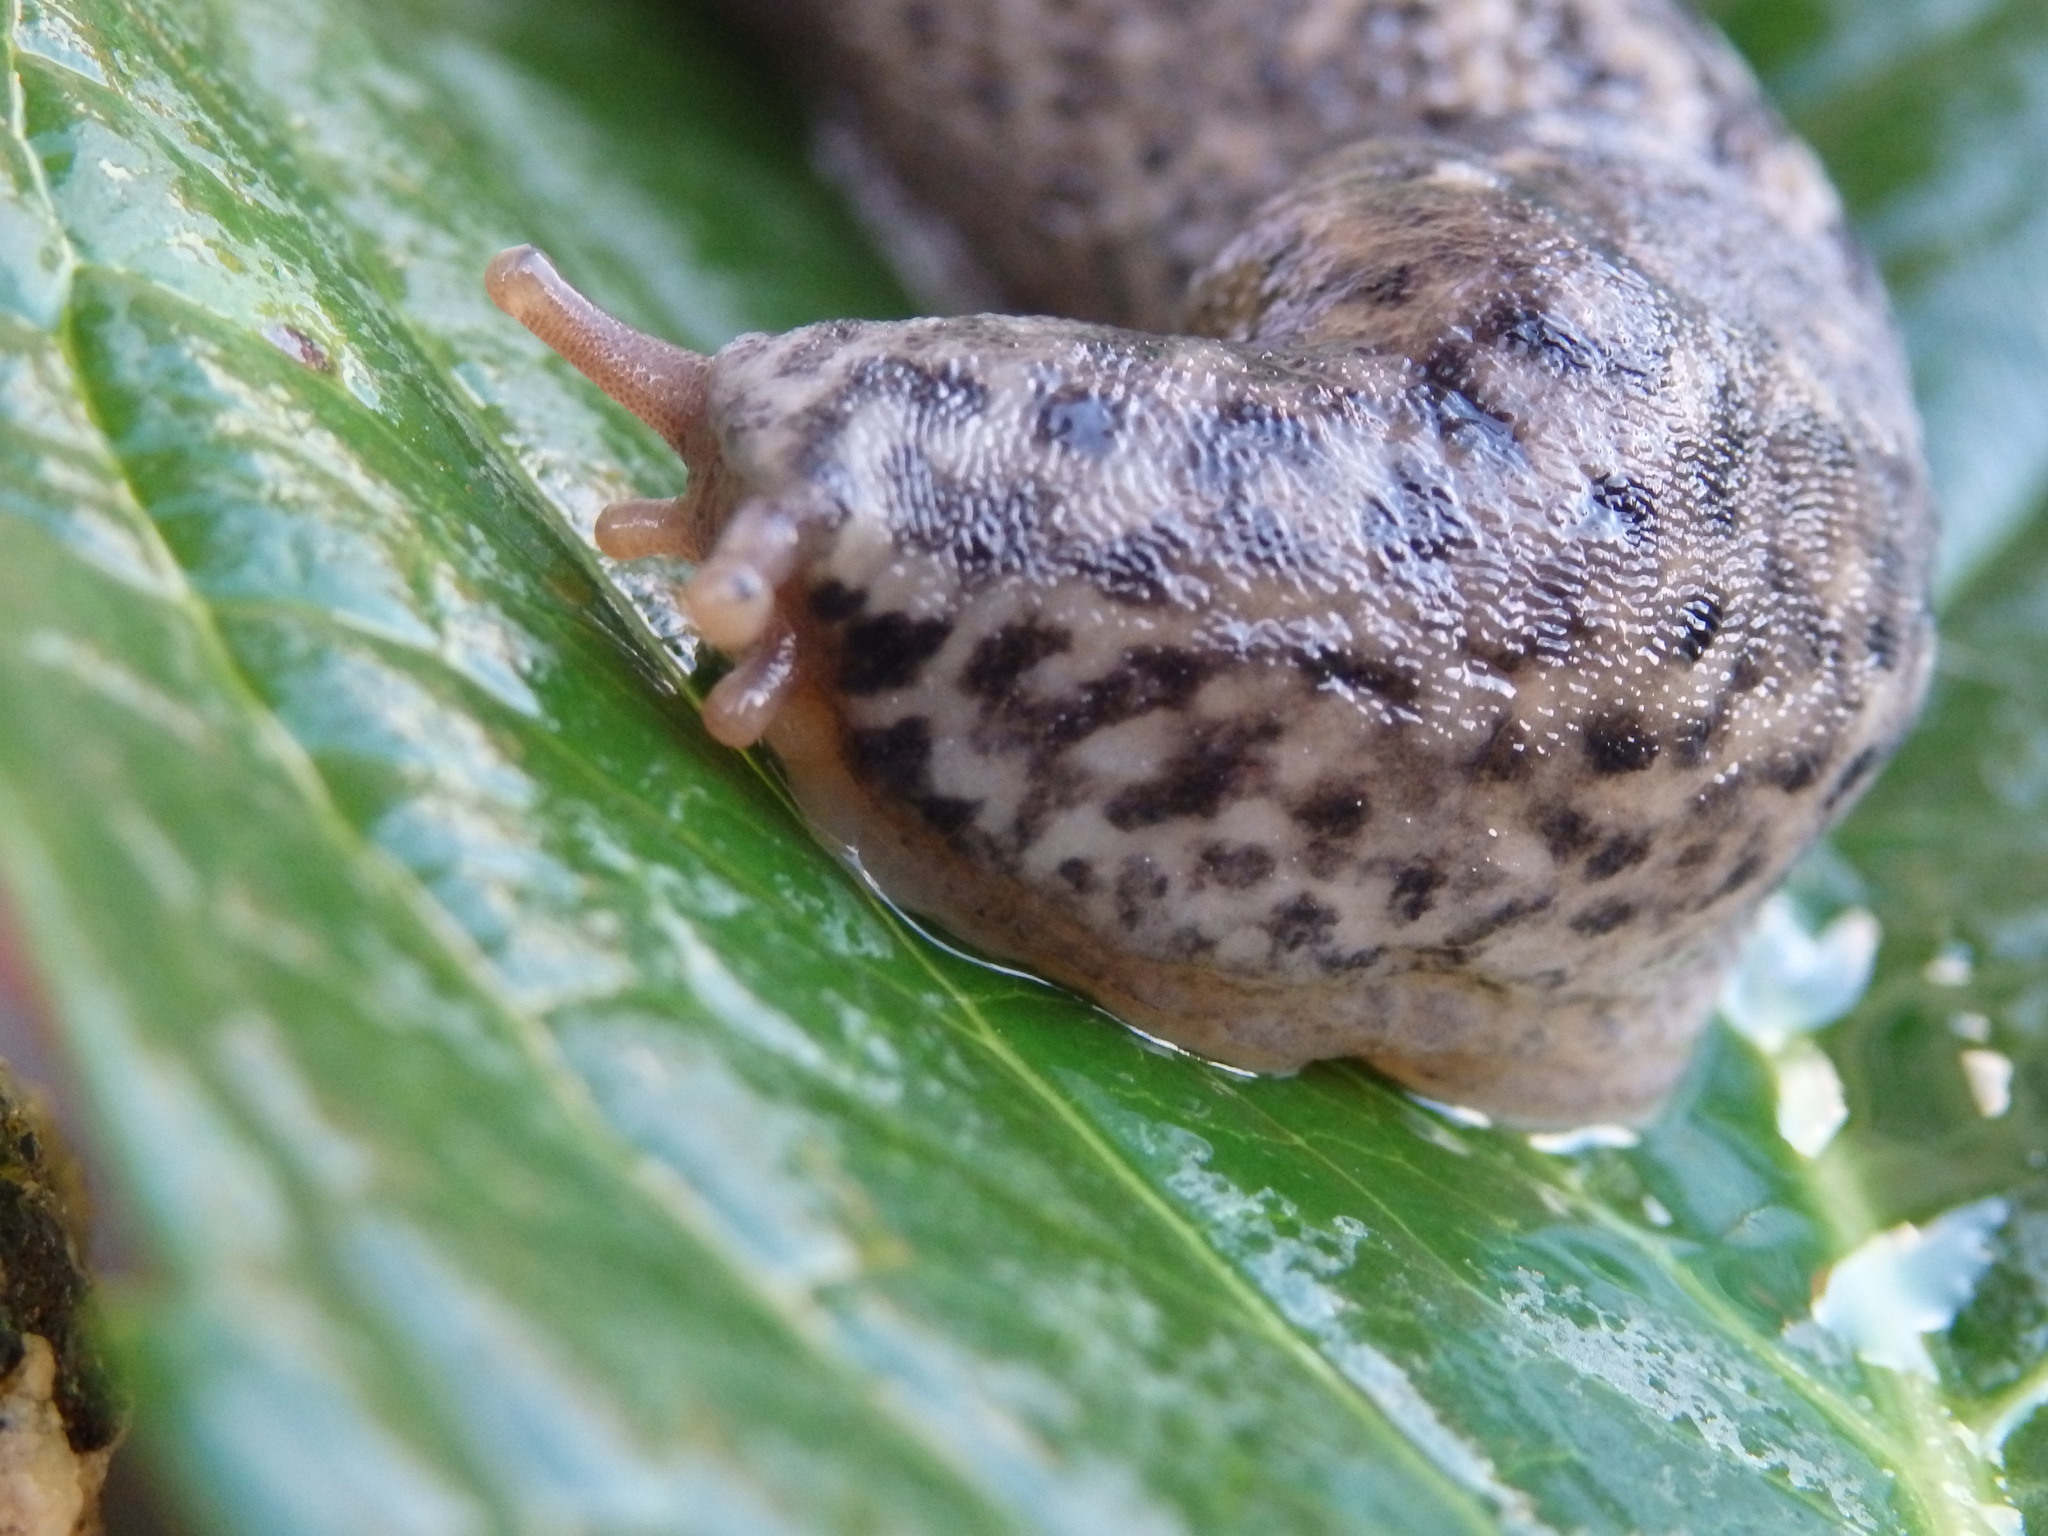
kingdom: Animalia
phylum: Mollusca
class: Gastropoda
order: Stylommatophora
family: Limacidae
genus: Limax
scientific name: Limax maximus
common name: Great grey slug
